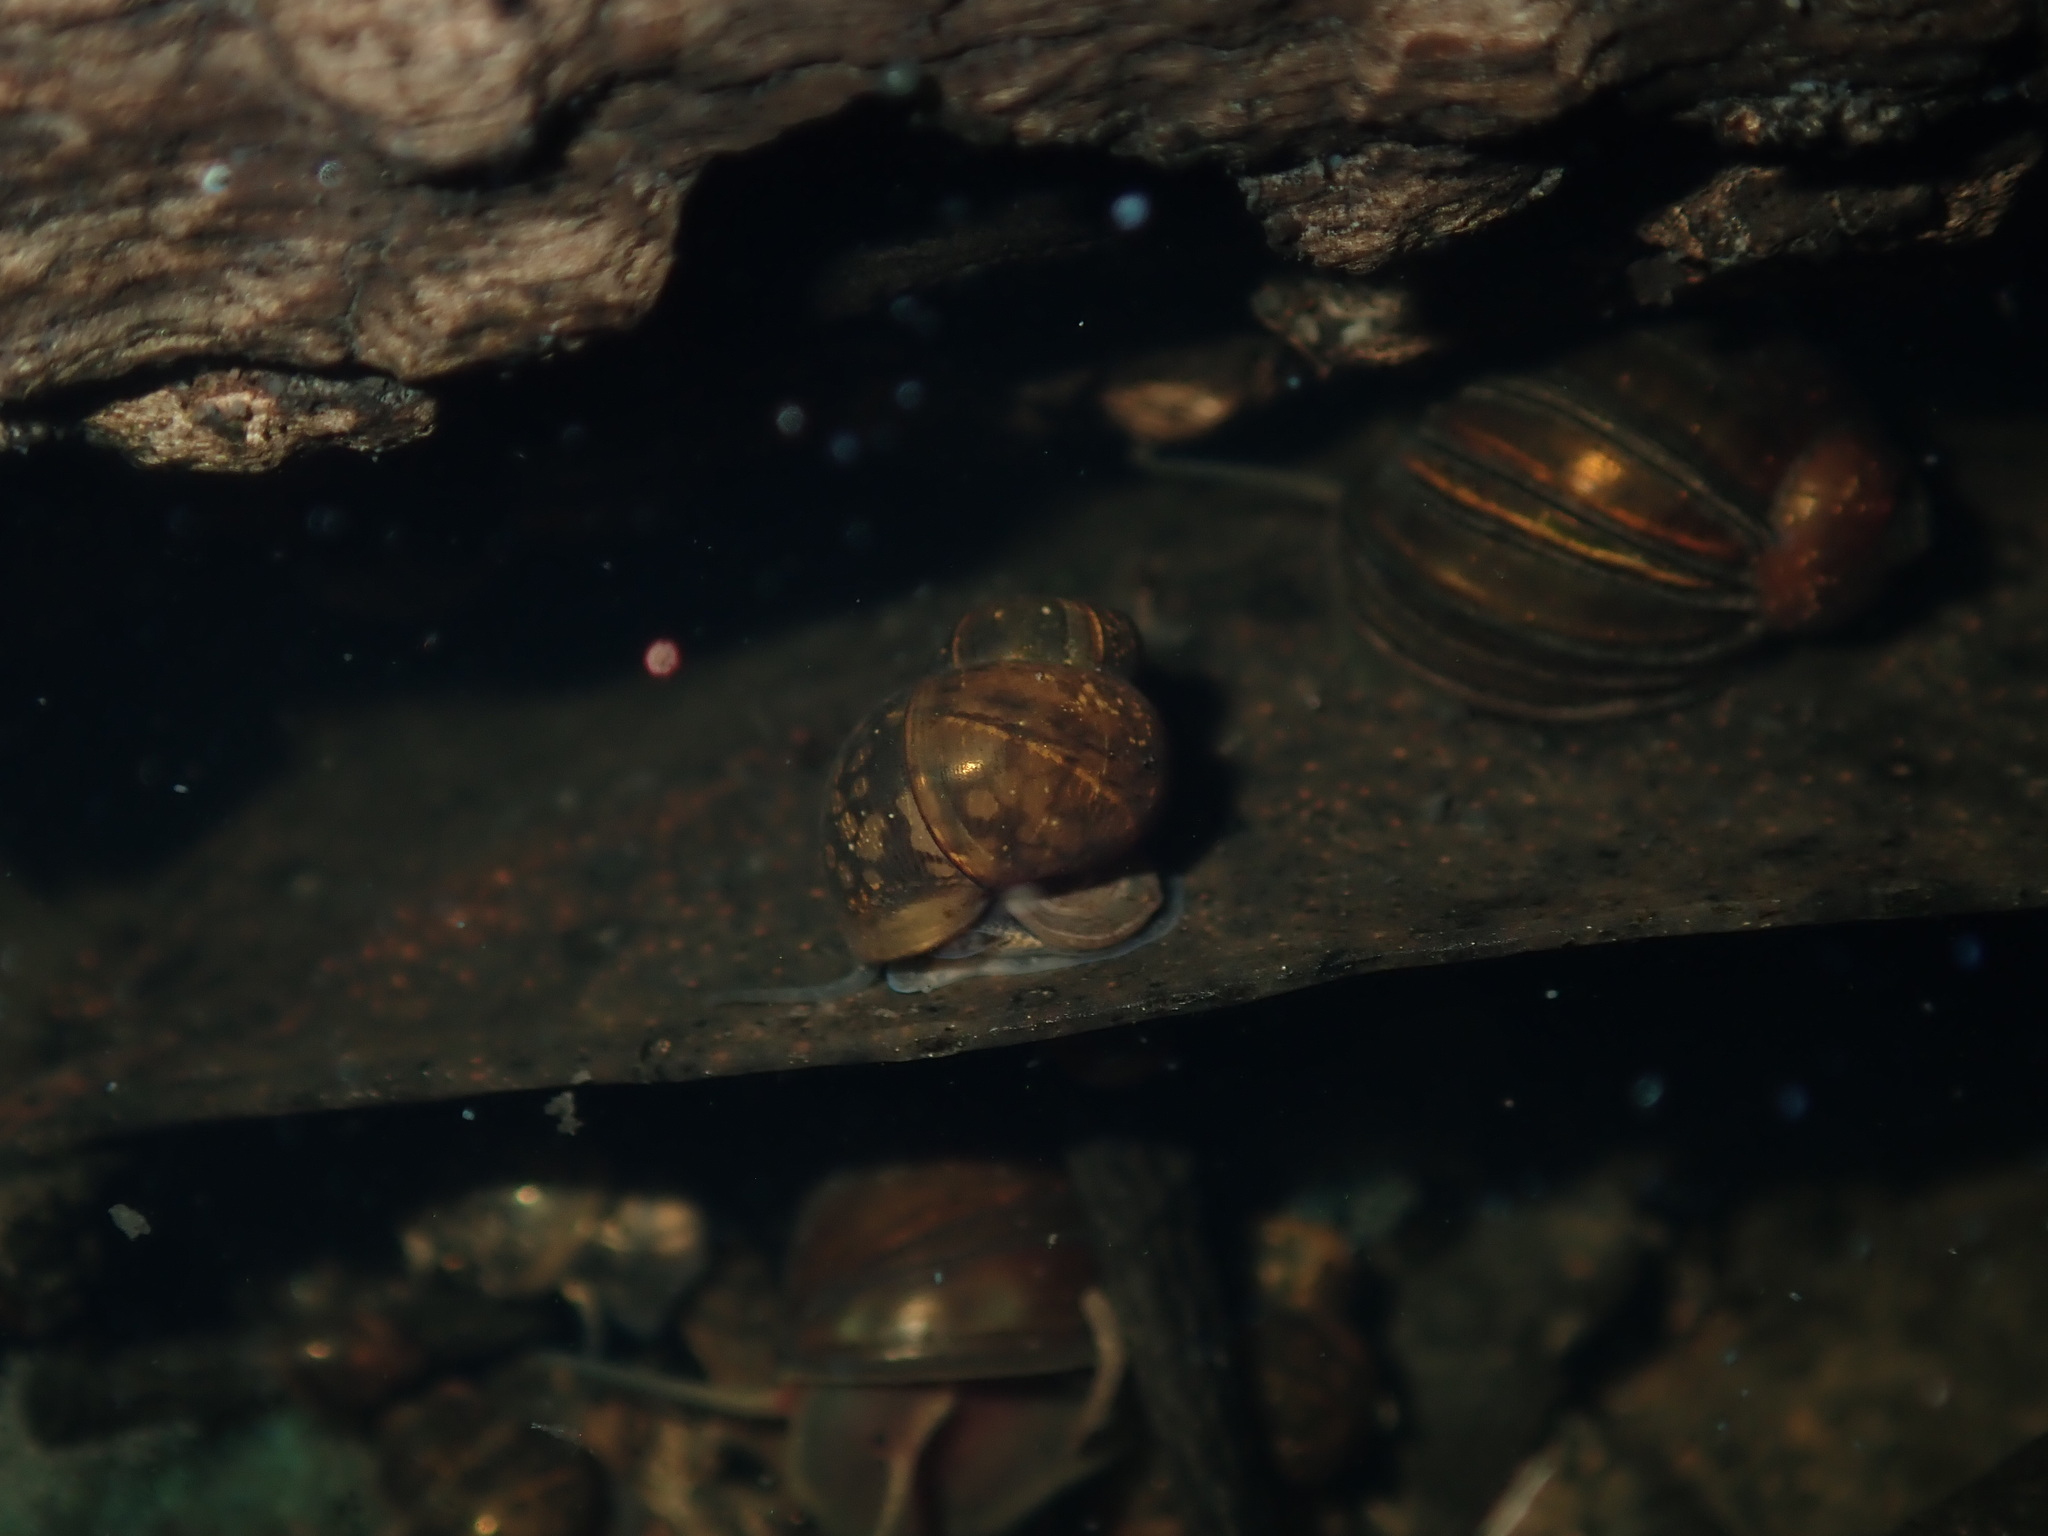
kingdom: Animalia
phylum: Mollusca
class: Gastropoda
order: Littorinimorpha
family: Bithyniidae
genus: Gabbia
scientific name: Gabbia vertiginosa
